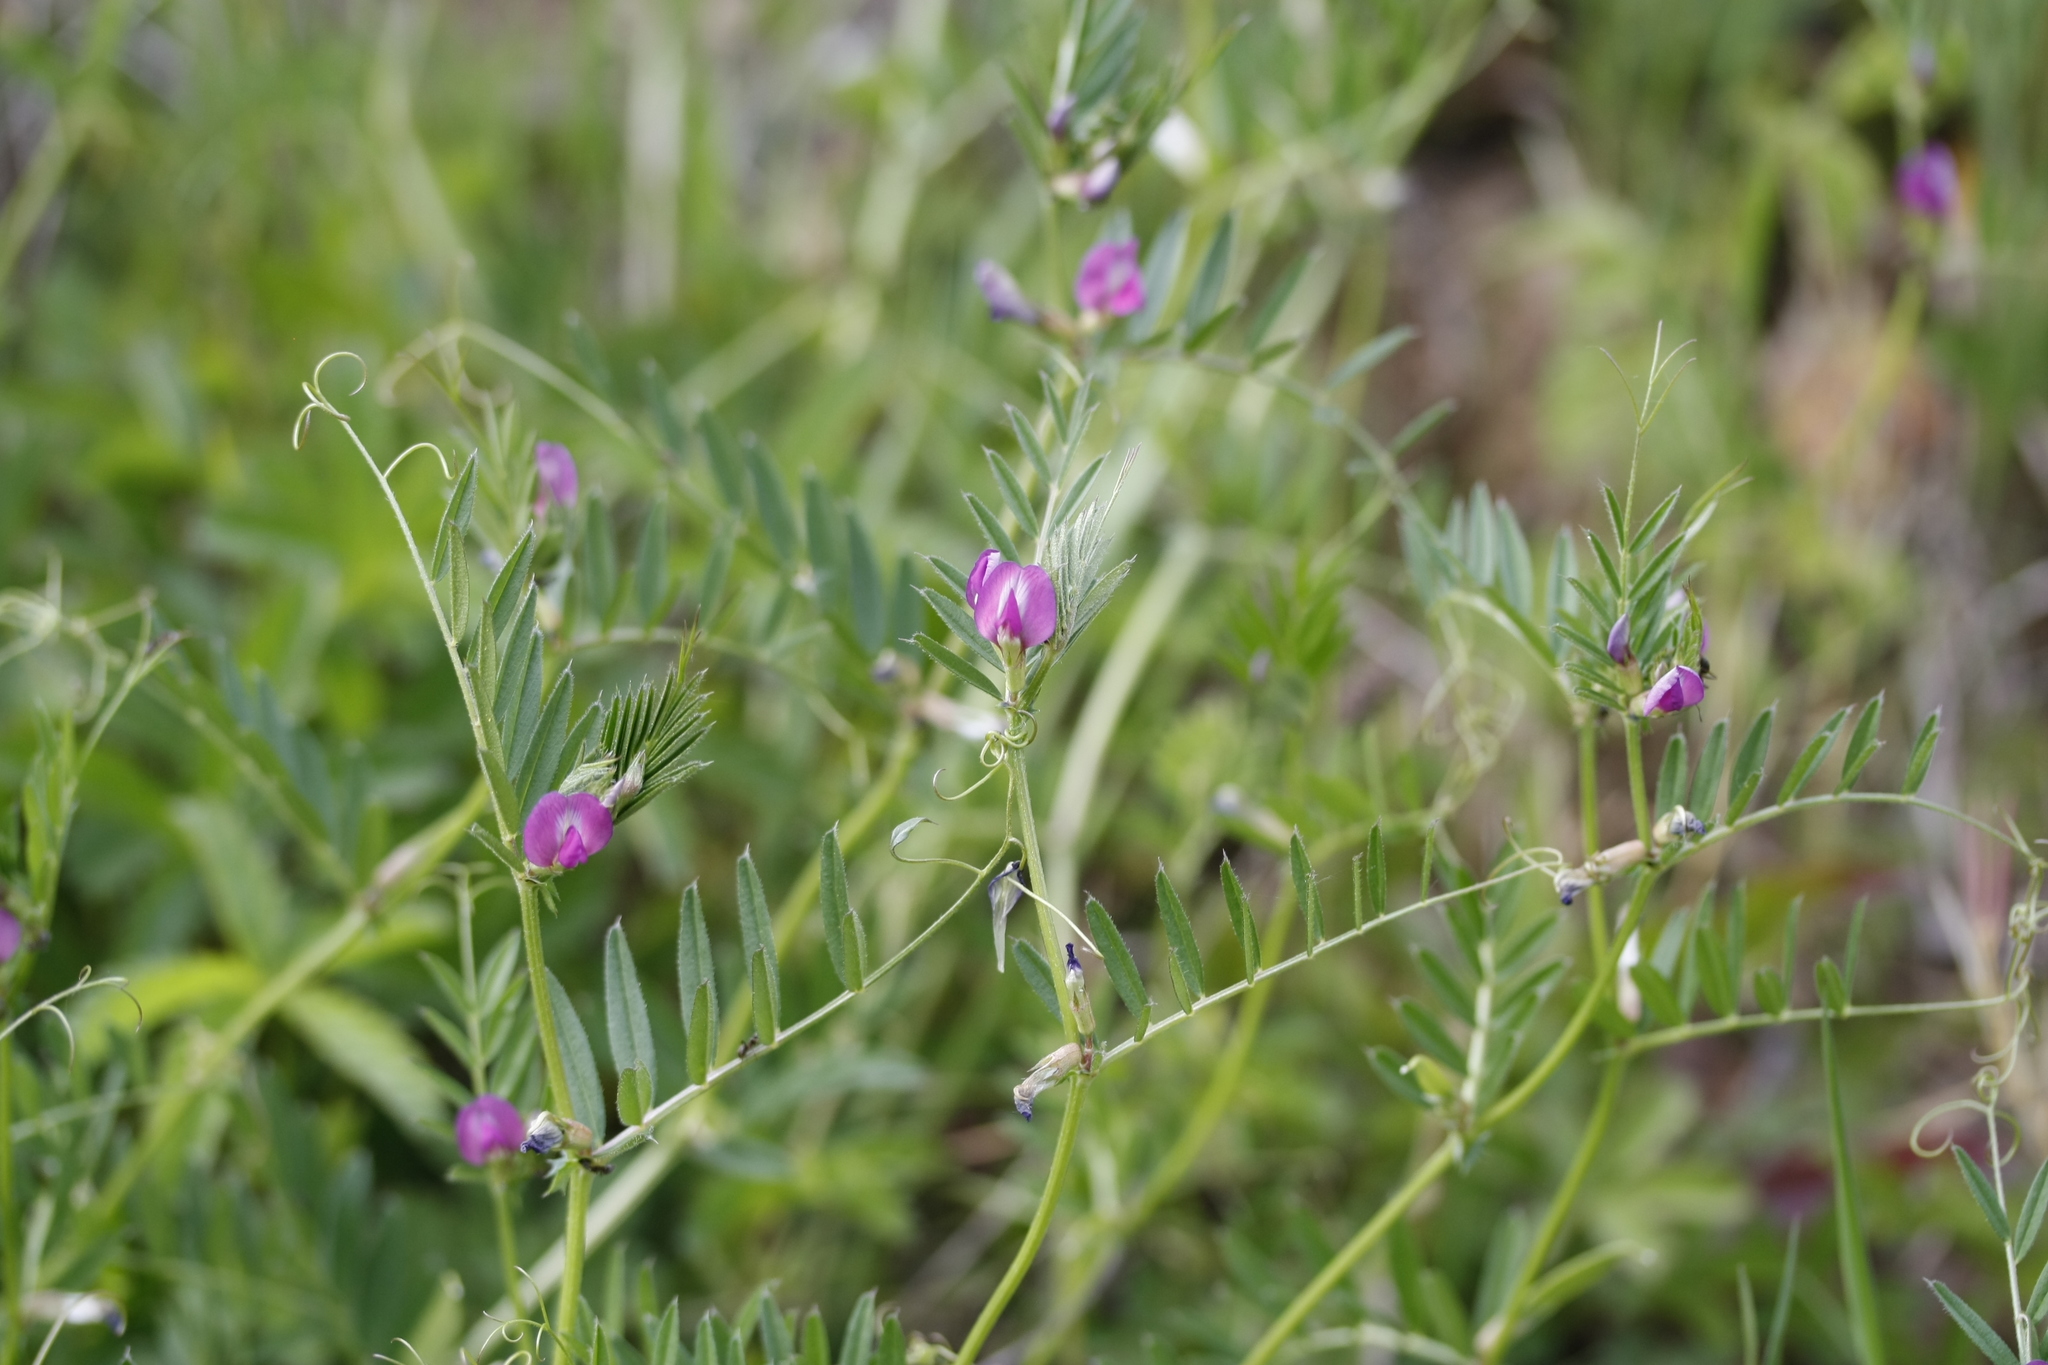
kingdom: Plantae
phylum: Tracheophyta
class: Magnoliopsida
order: Fabales
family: Fabaceae
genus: Vicia
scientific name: Vicia sativa
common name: Garden vetch
